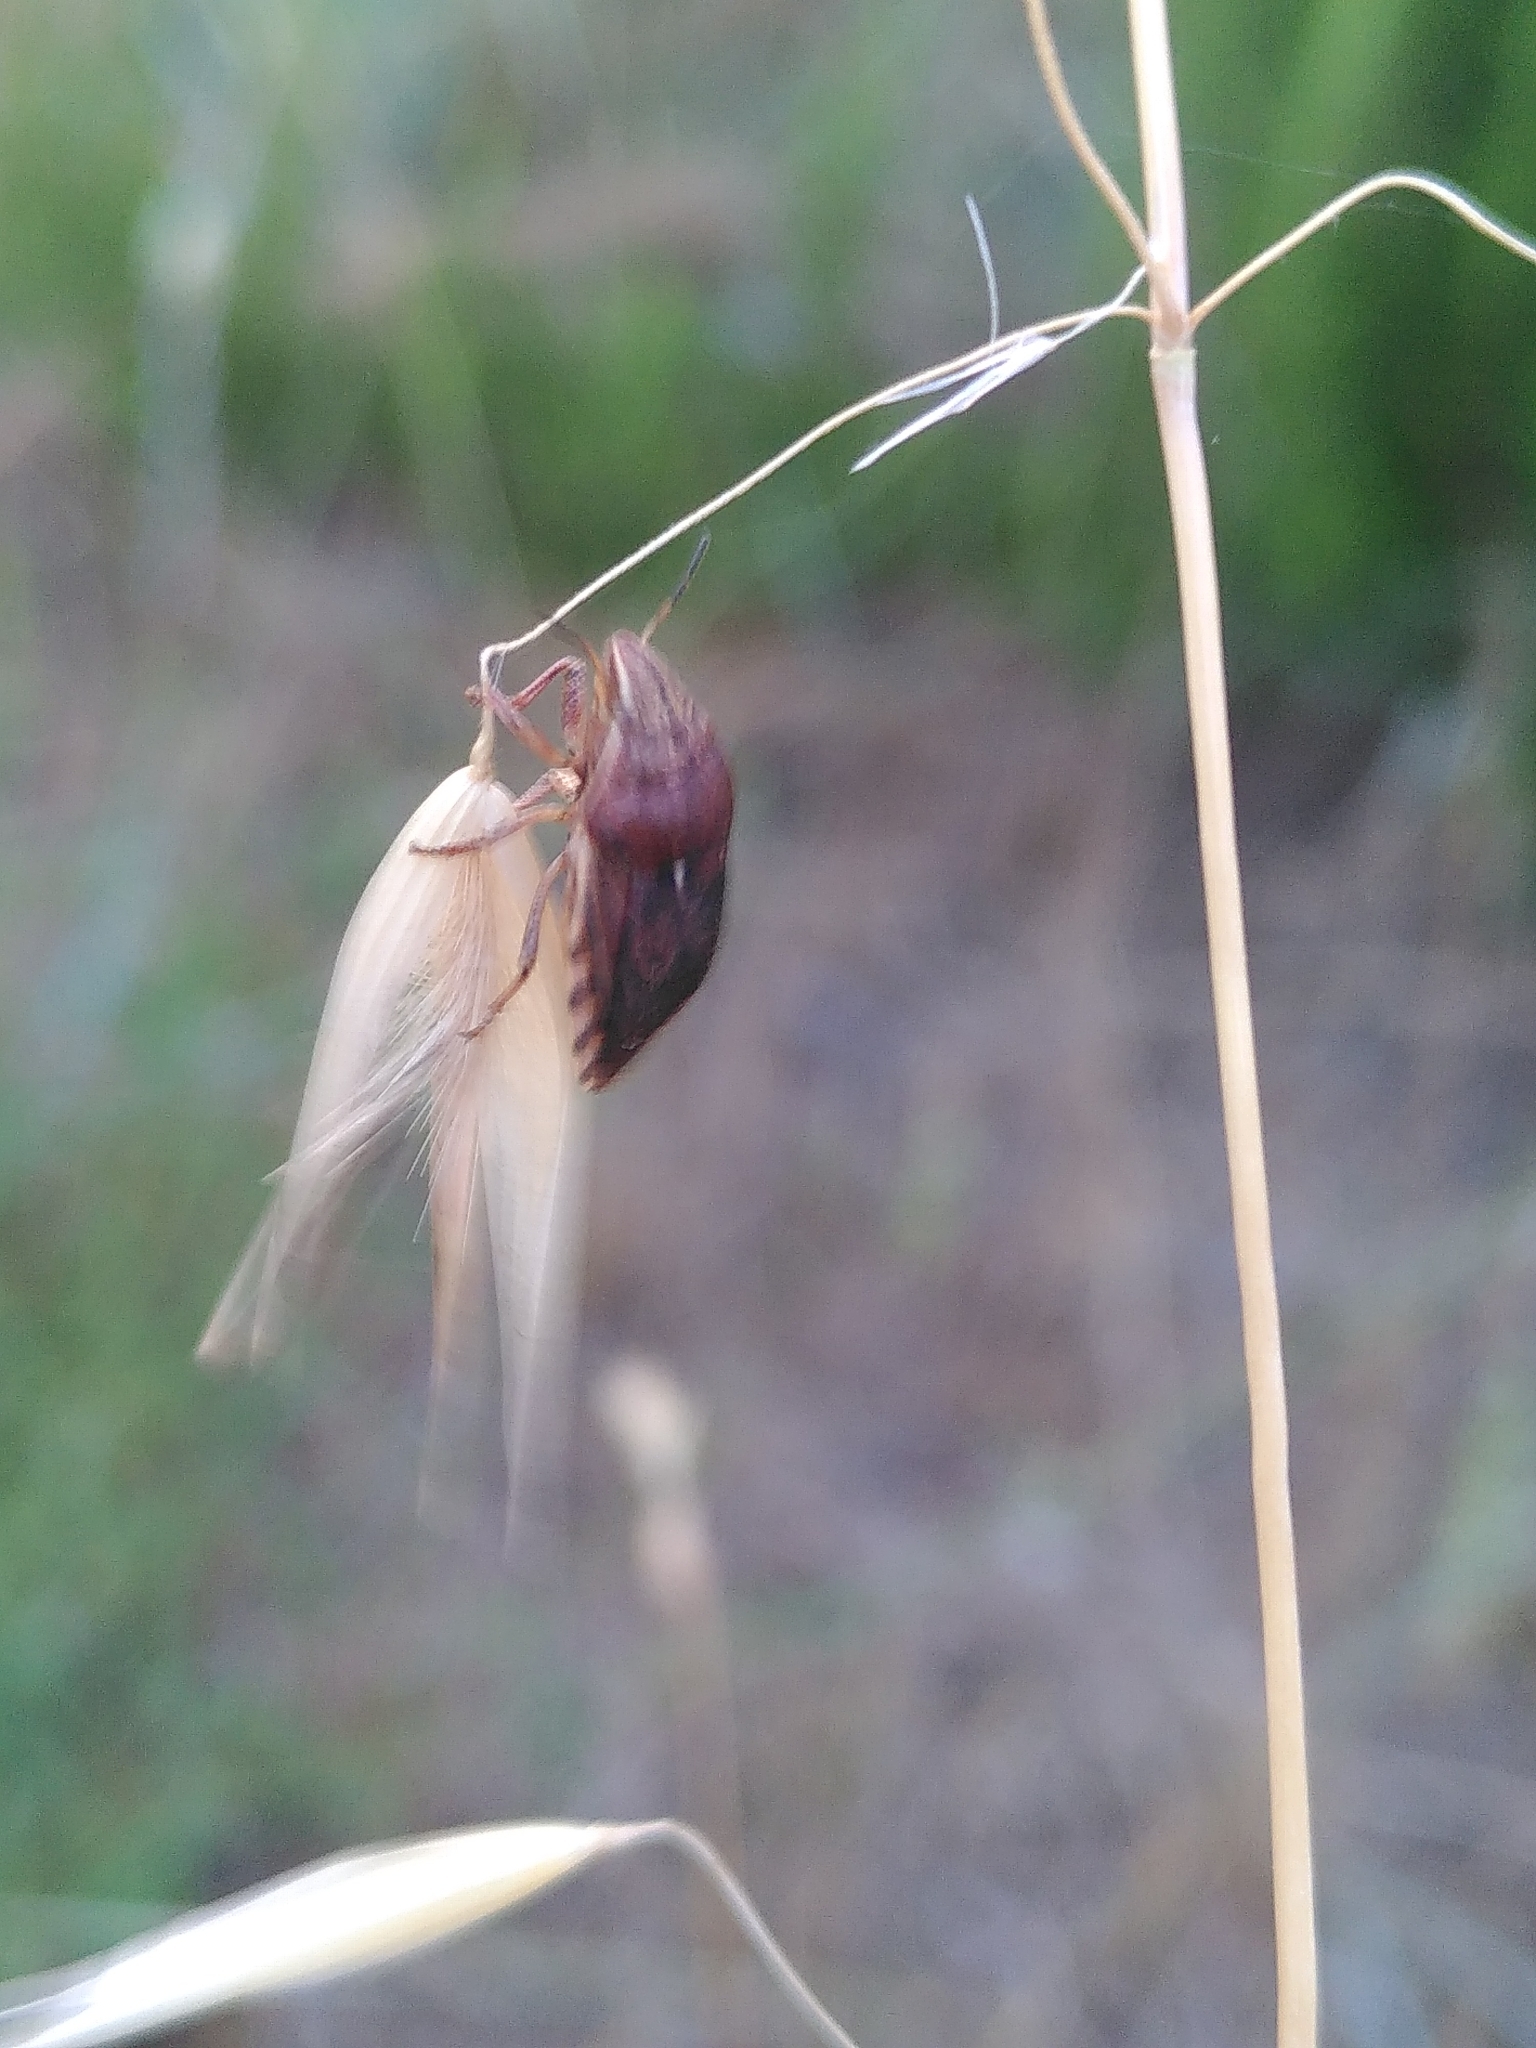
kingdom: Animalia
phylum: Arthropoda
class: Insecta
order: Hemiptera
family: Scutelleridae
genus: Eurygaster
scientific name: Eurygaster maura
